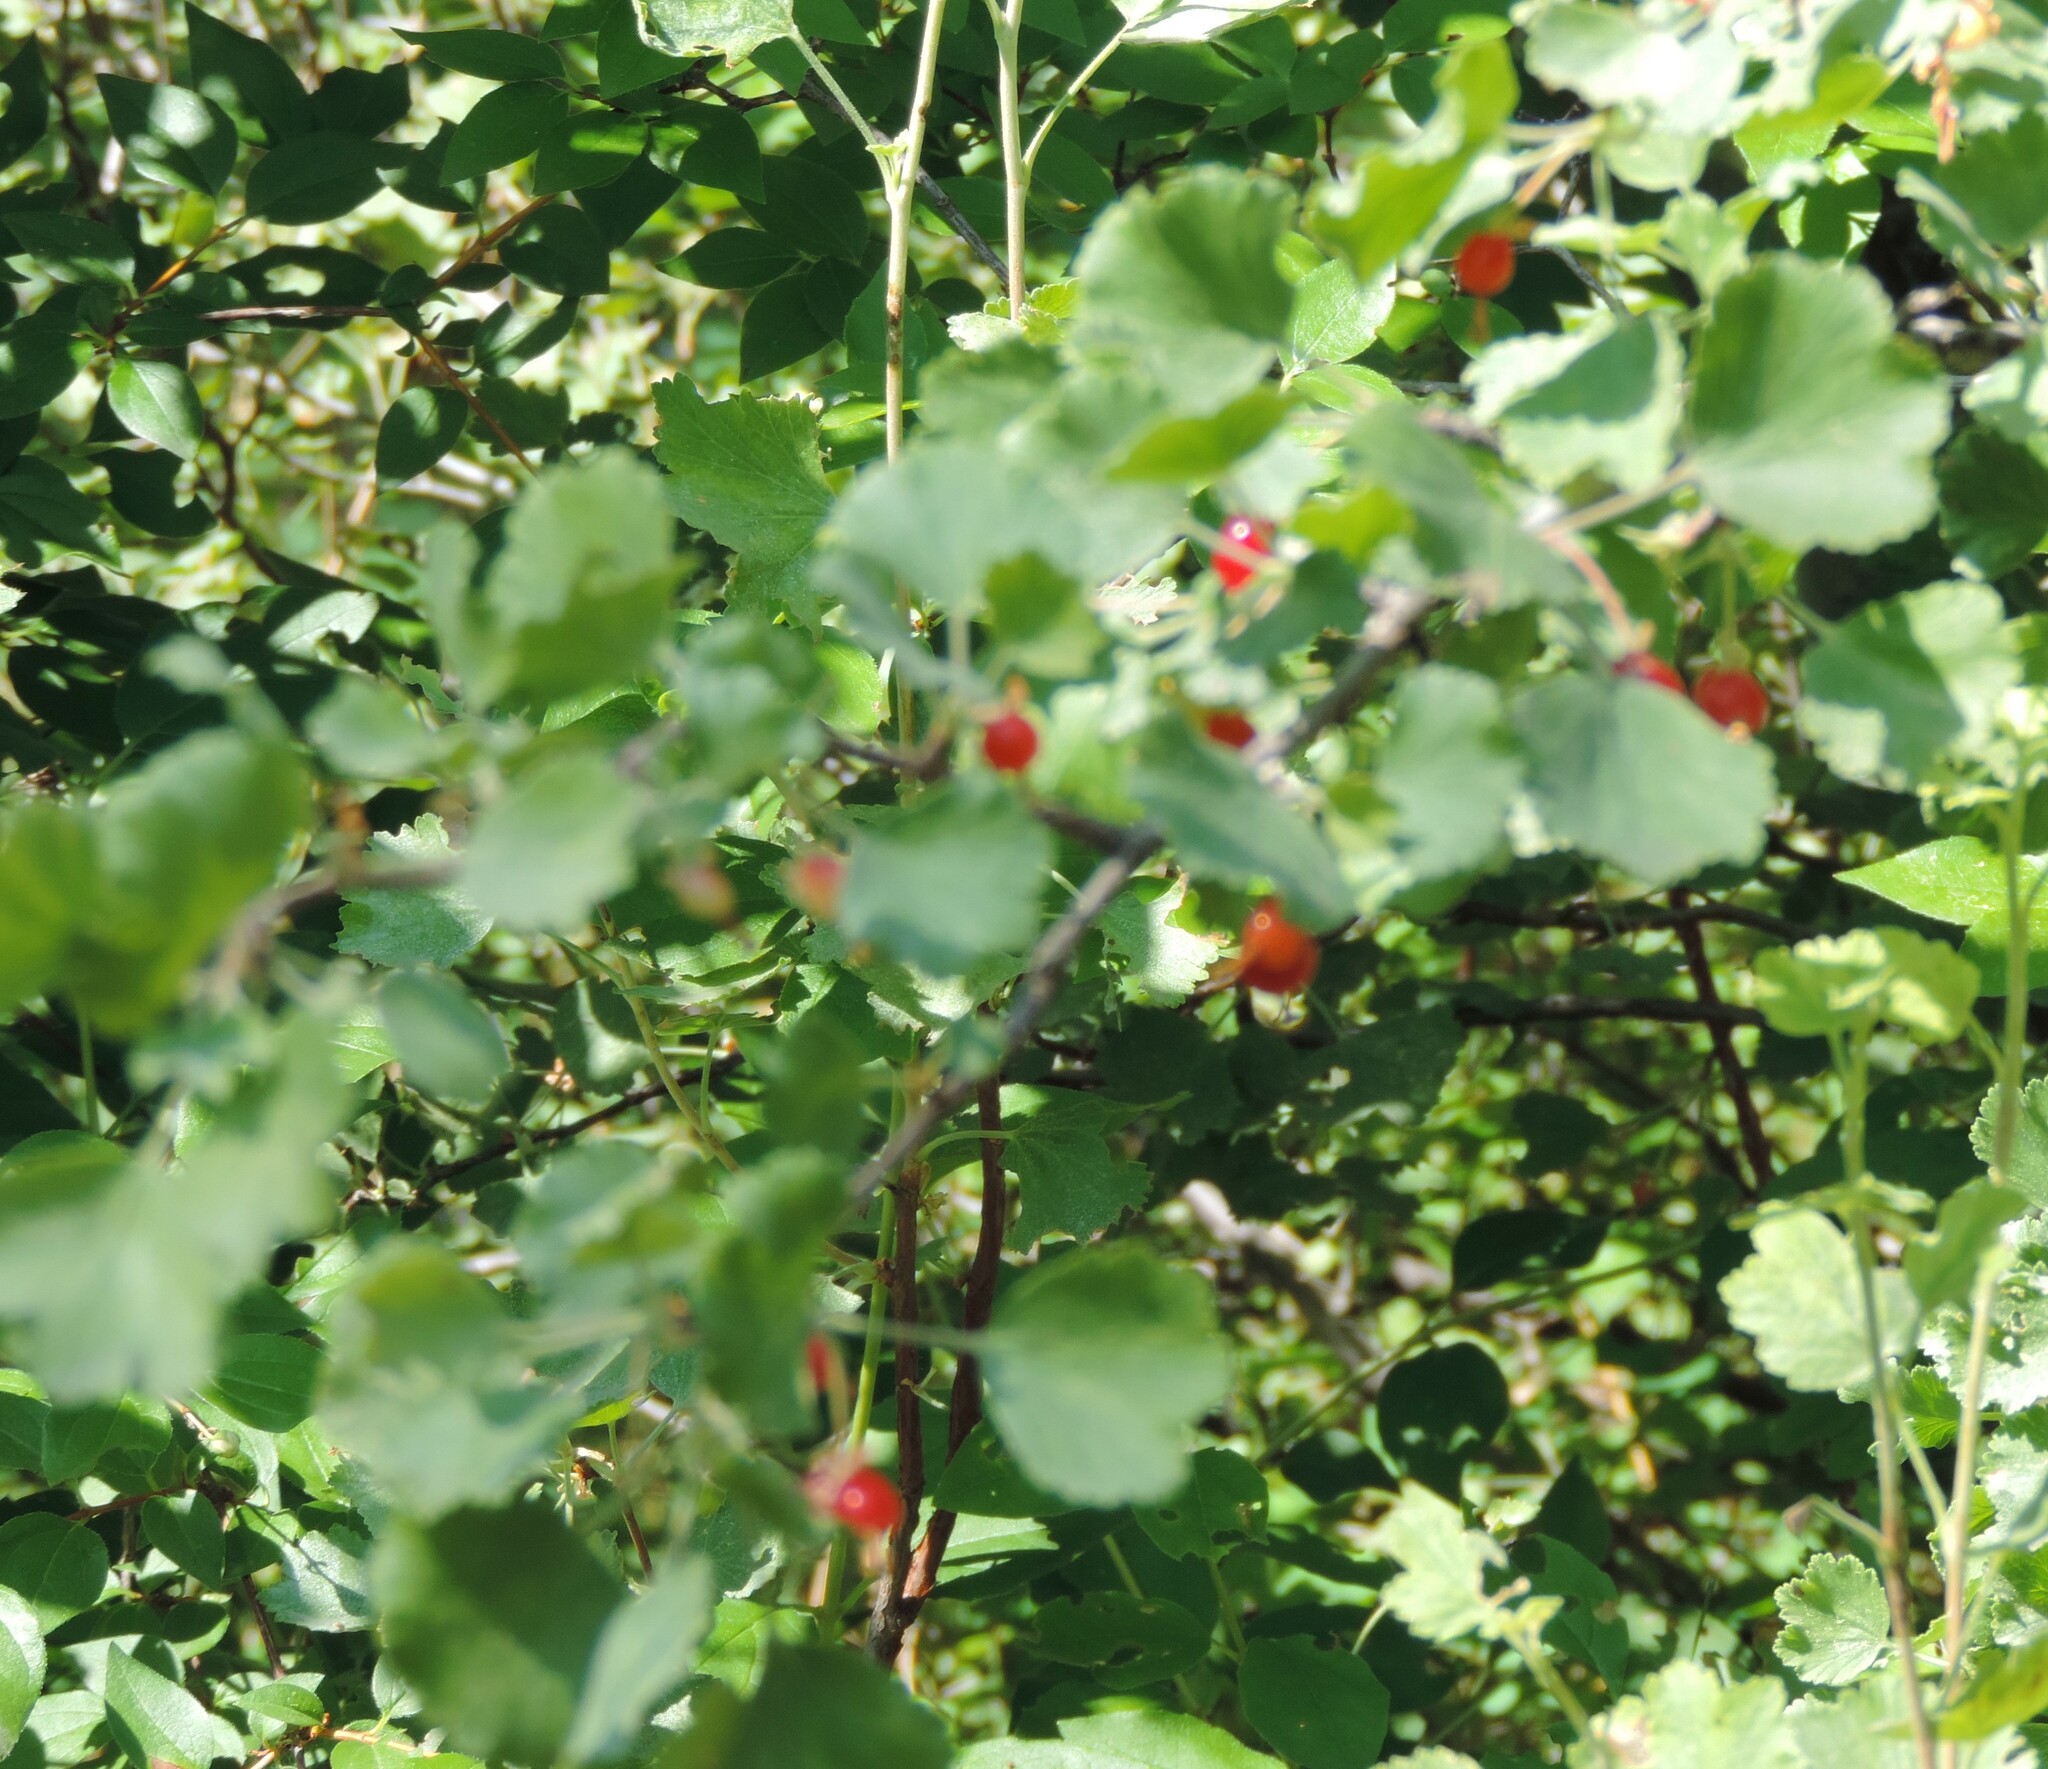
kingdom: Plantae
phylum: Tracheophyta
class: Magnoliopsida
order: Saxifragales
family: Grossulariaceae
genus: Ribes
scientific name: Ribes cereum
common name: Wax currant
